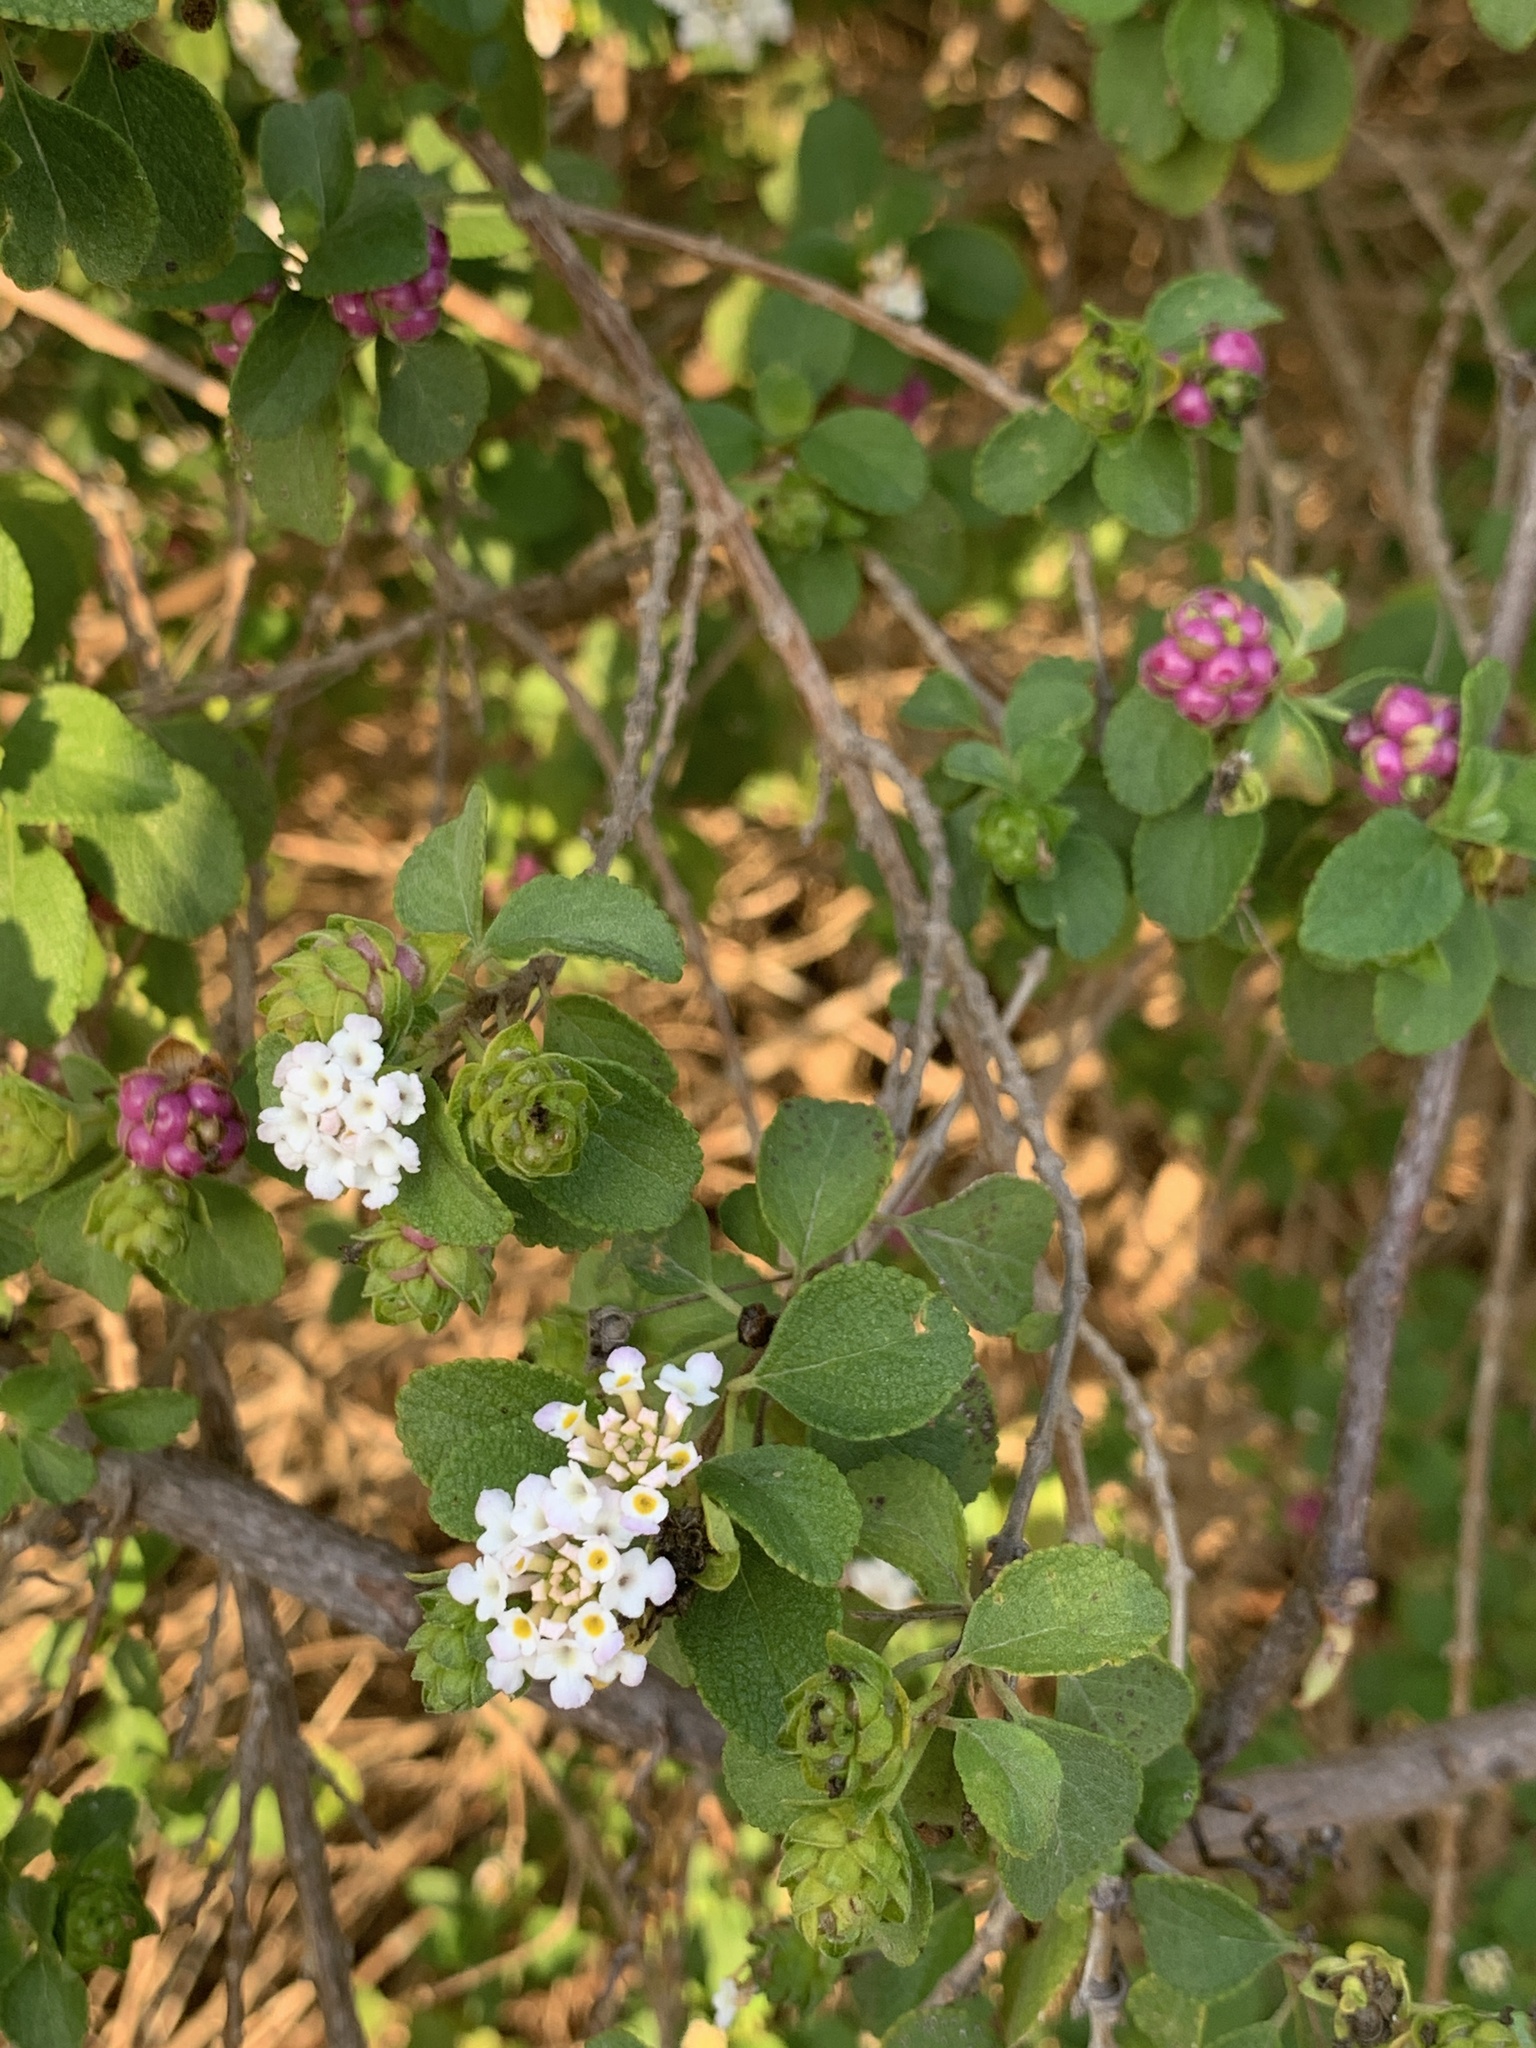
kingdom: Plantae
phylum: Tracheophyta
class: Magnoliopsida
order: Lamiales
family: Verbenaceae
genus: Lantana
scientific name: Lantana involucrata
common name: Black sage
